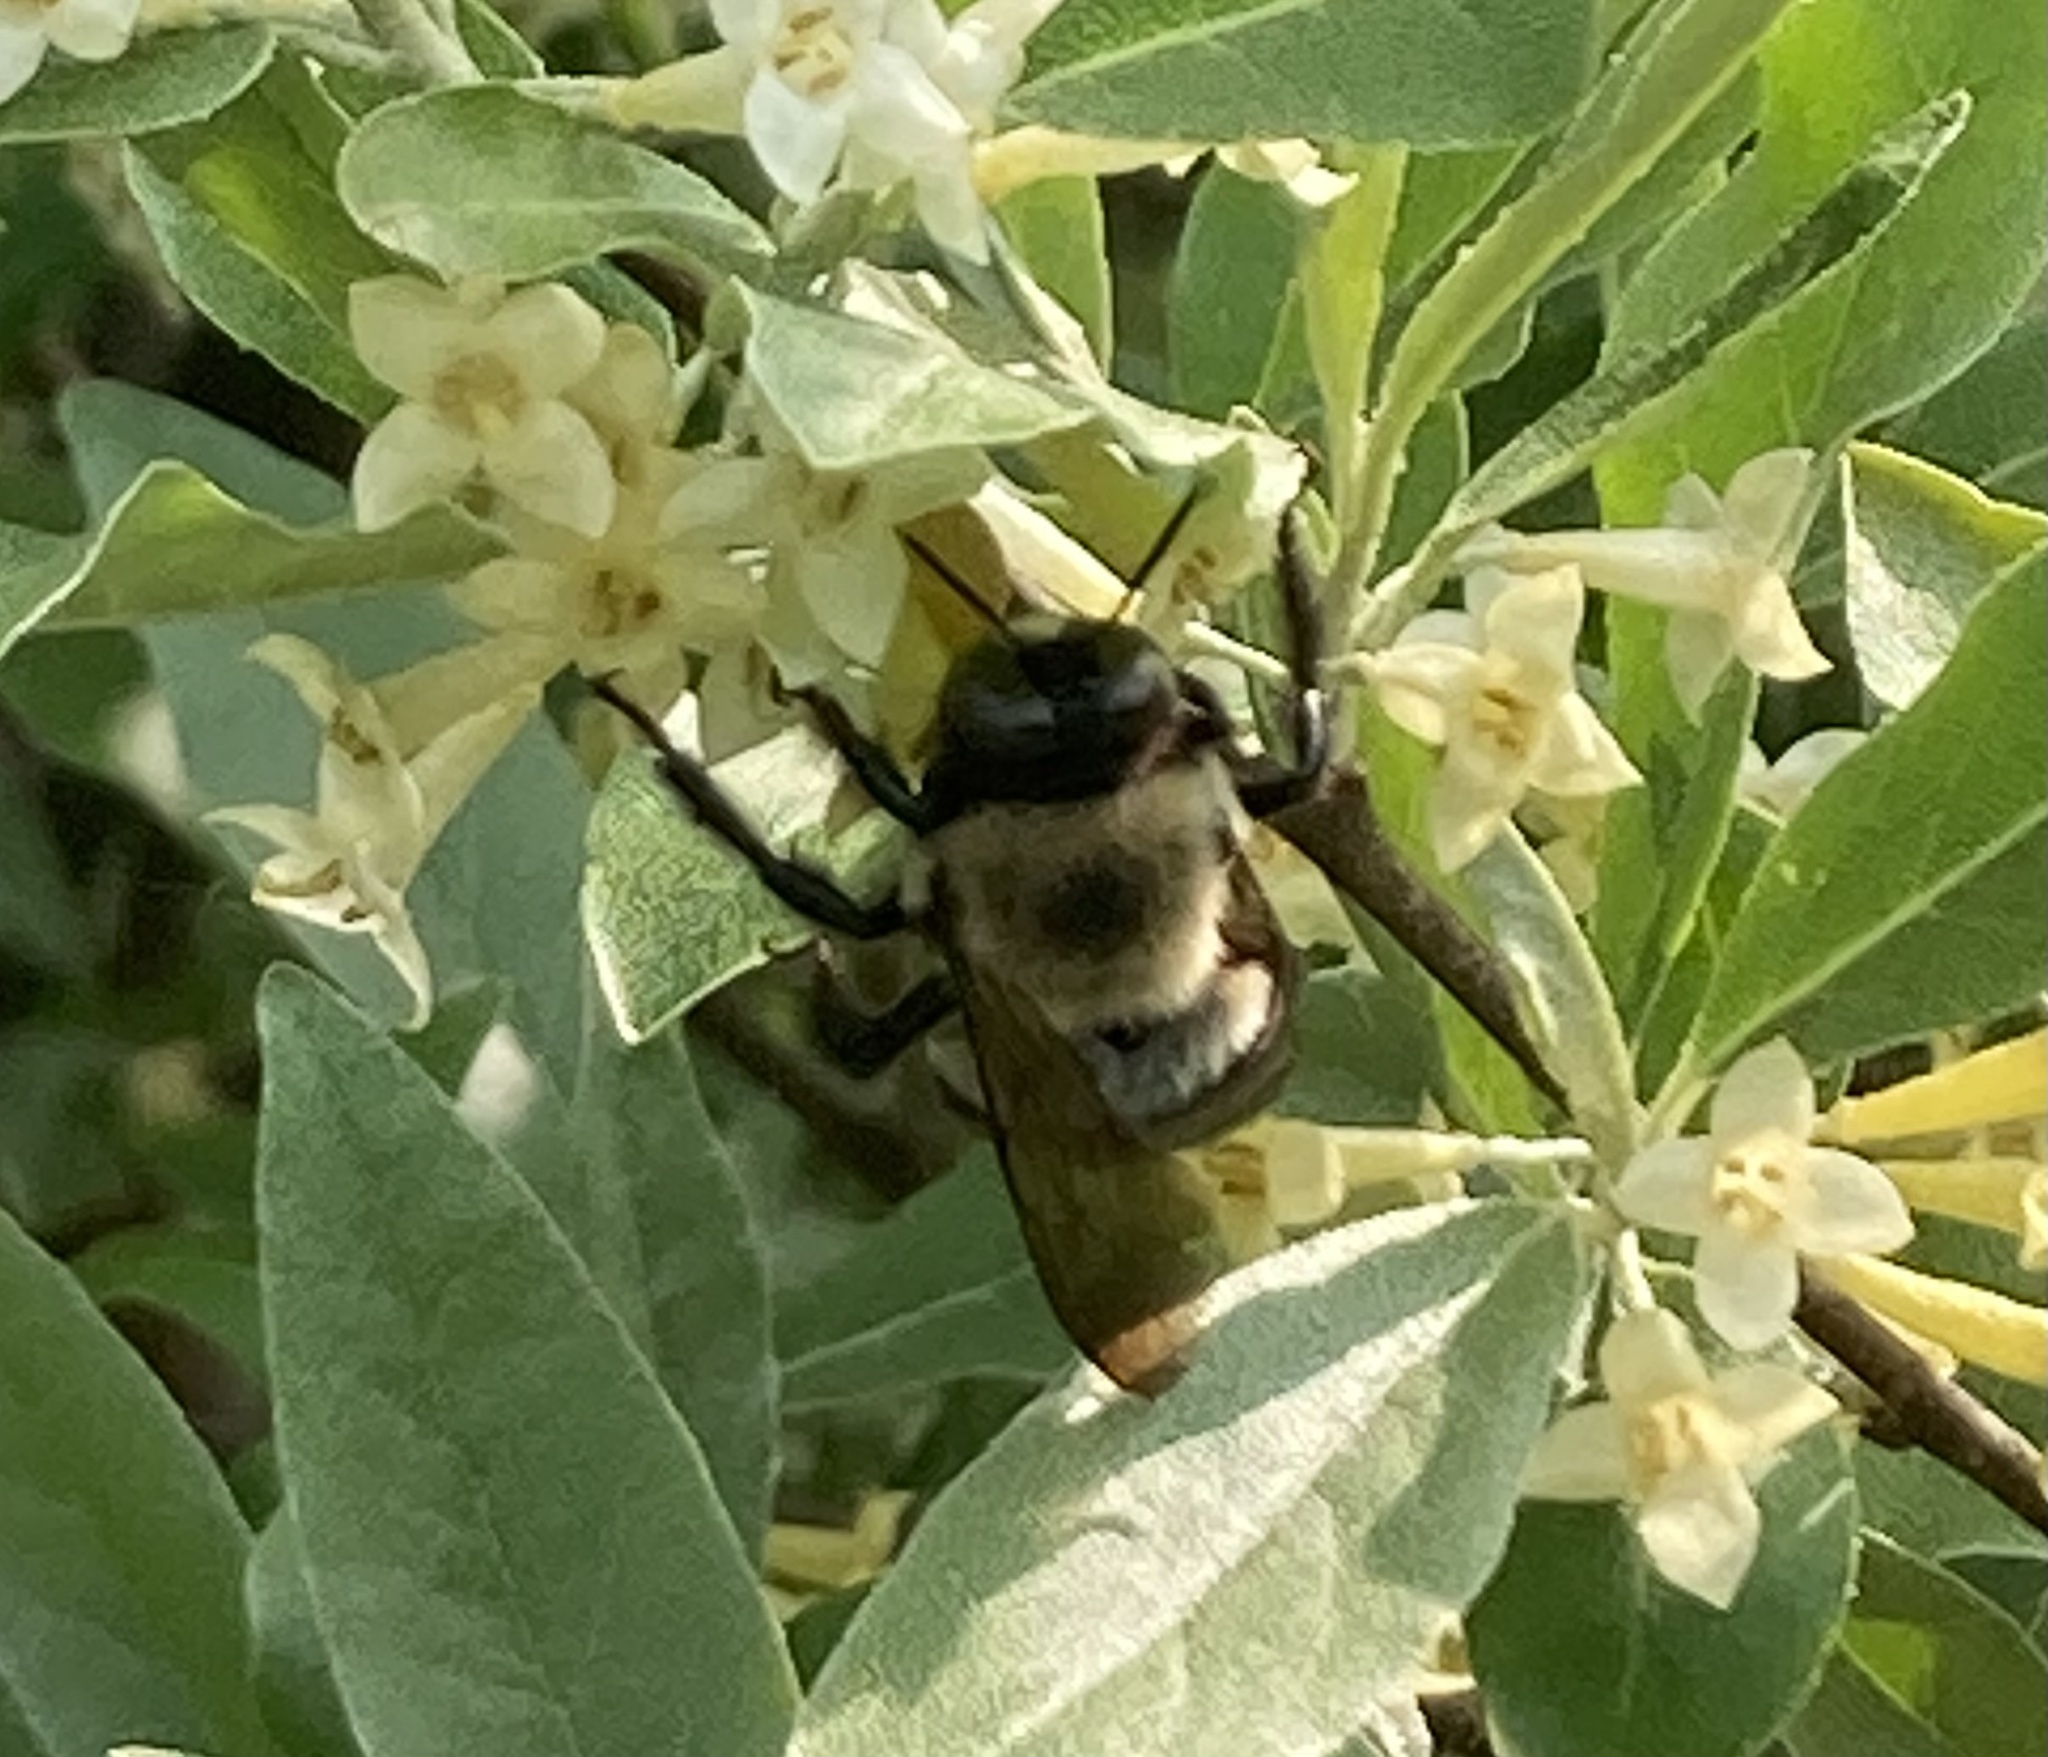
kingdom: Animalia
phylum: Arthropoda
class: Insecta
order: Hymenoptera
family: Apidae
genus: Xylocopa
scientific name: Xylocopa virginica
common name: Carpenter bee
